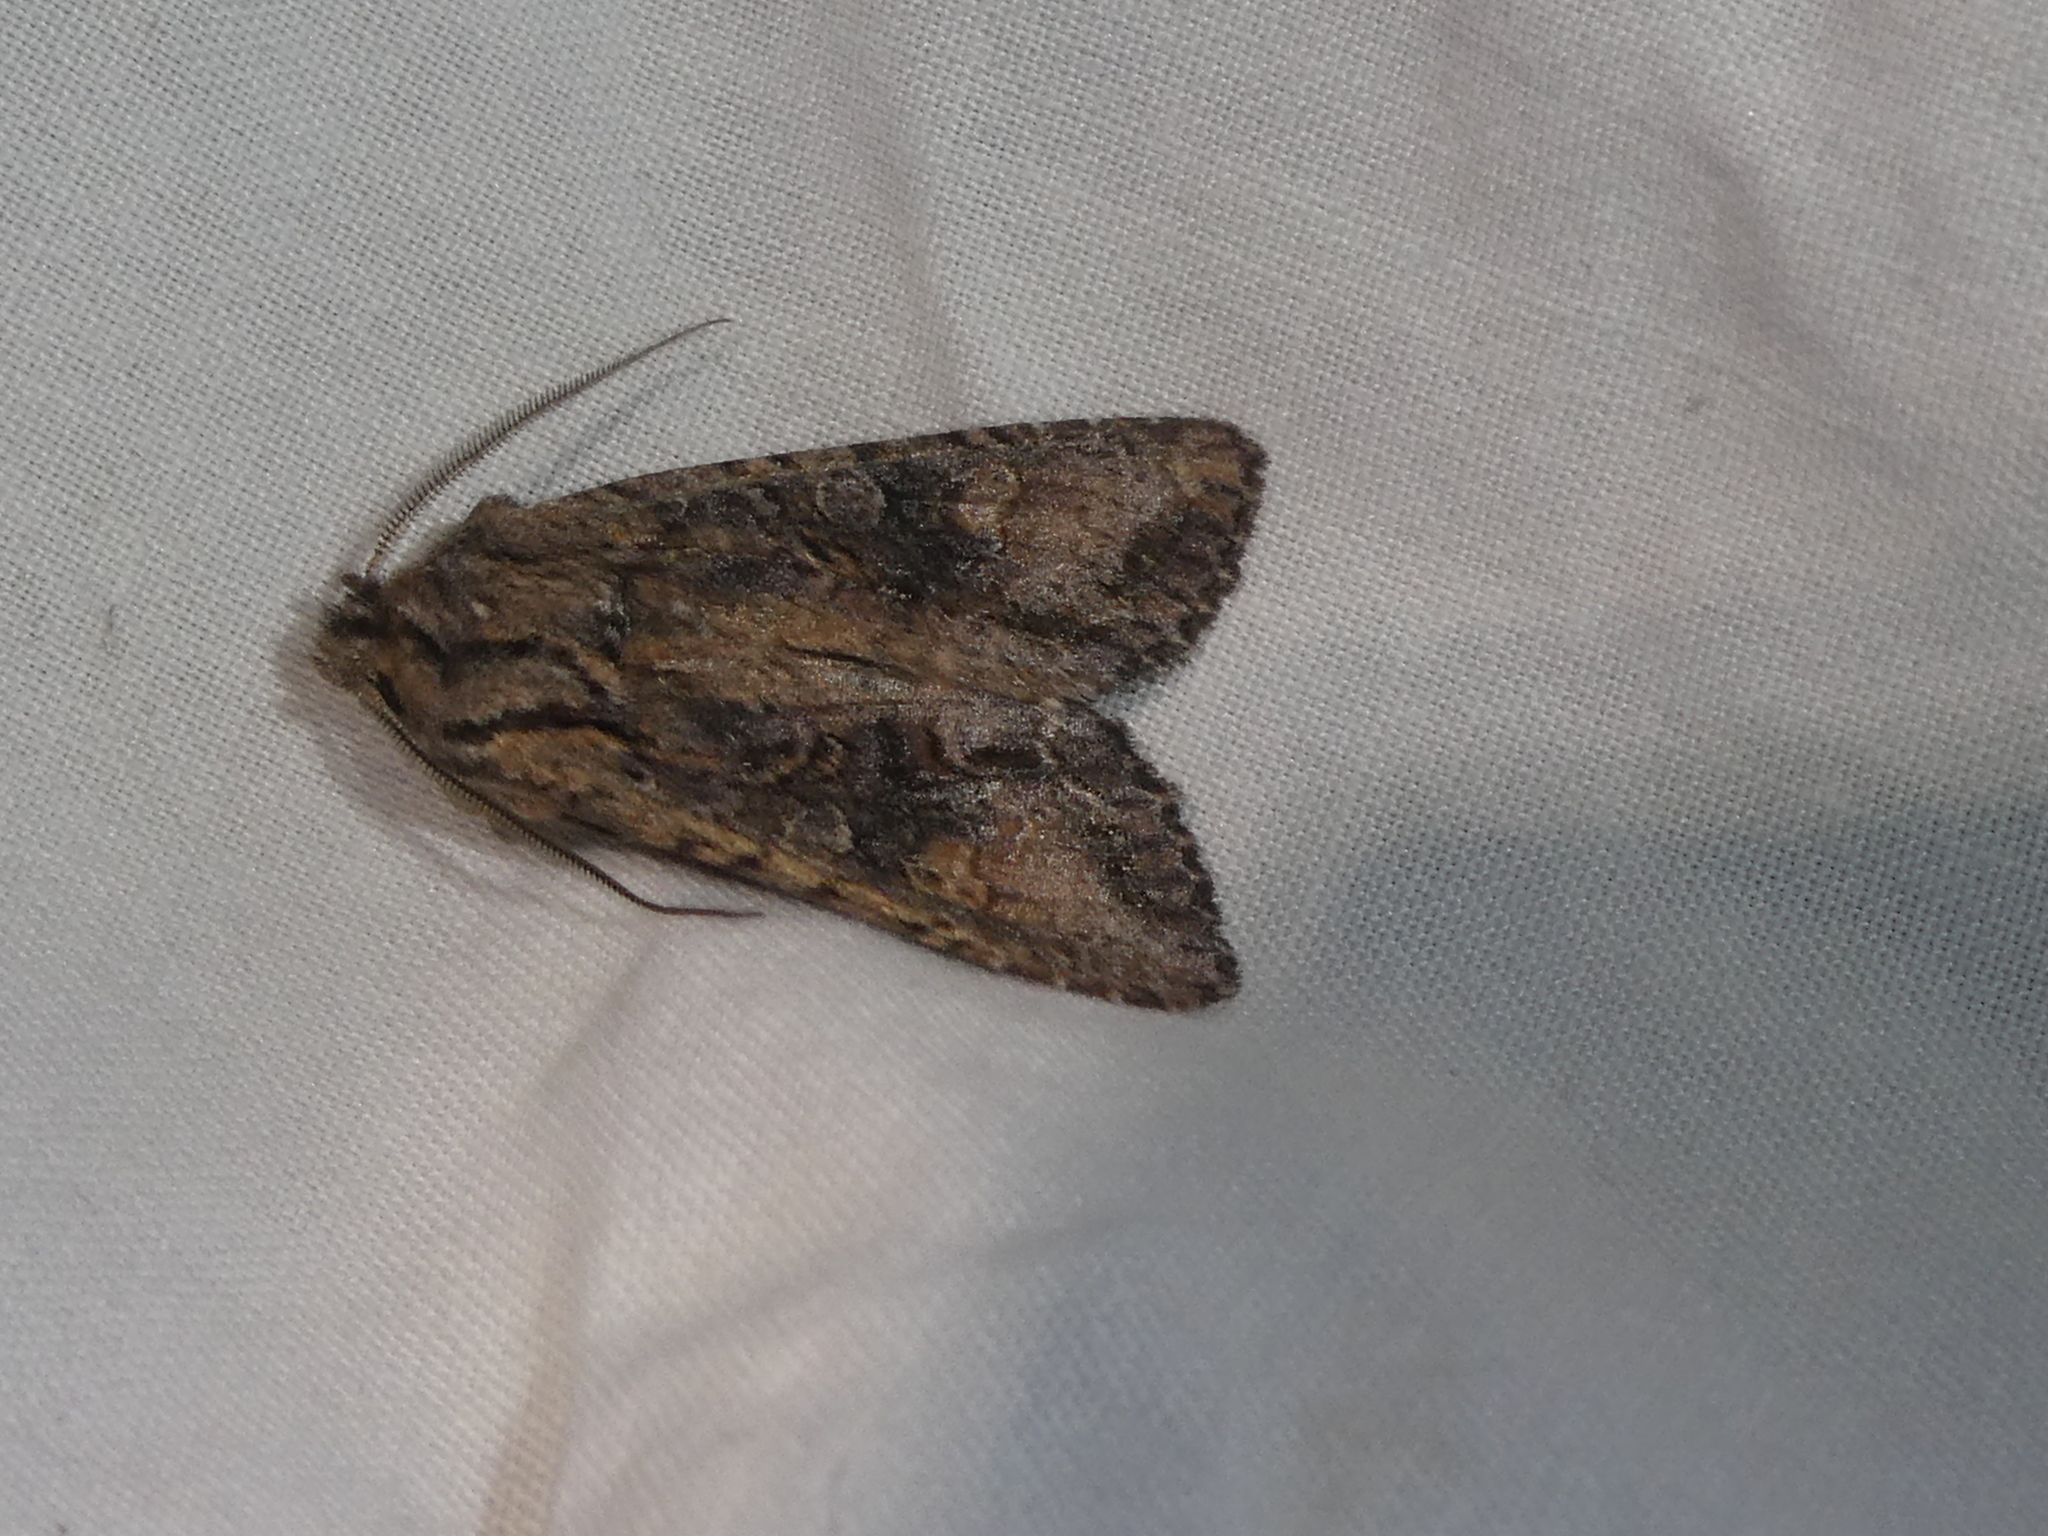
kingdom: Animalia
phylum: Arthropoda
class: Insecta
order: Lepidoptera
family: Noctuidae
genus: Ichneutica
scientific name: Ichneutica mutans
